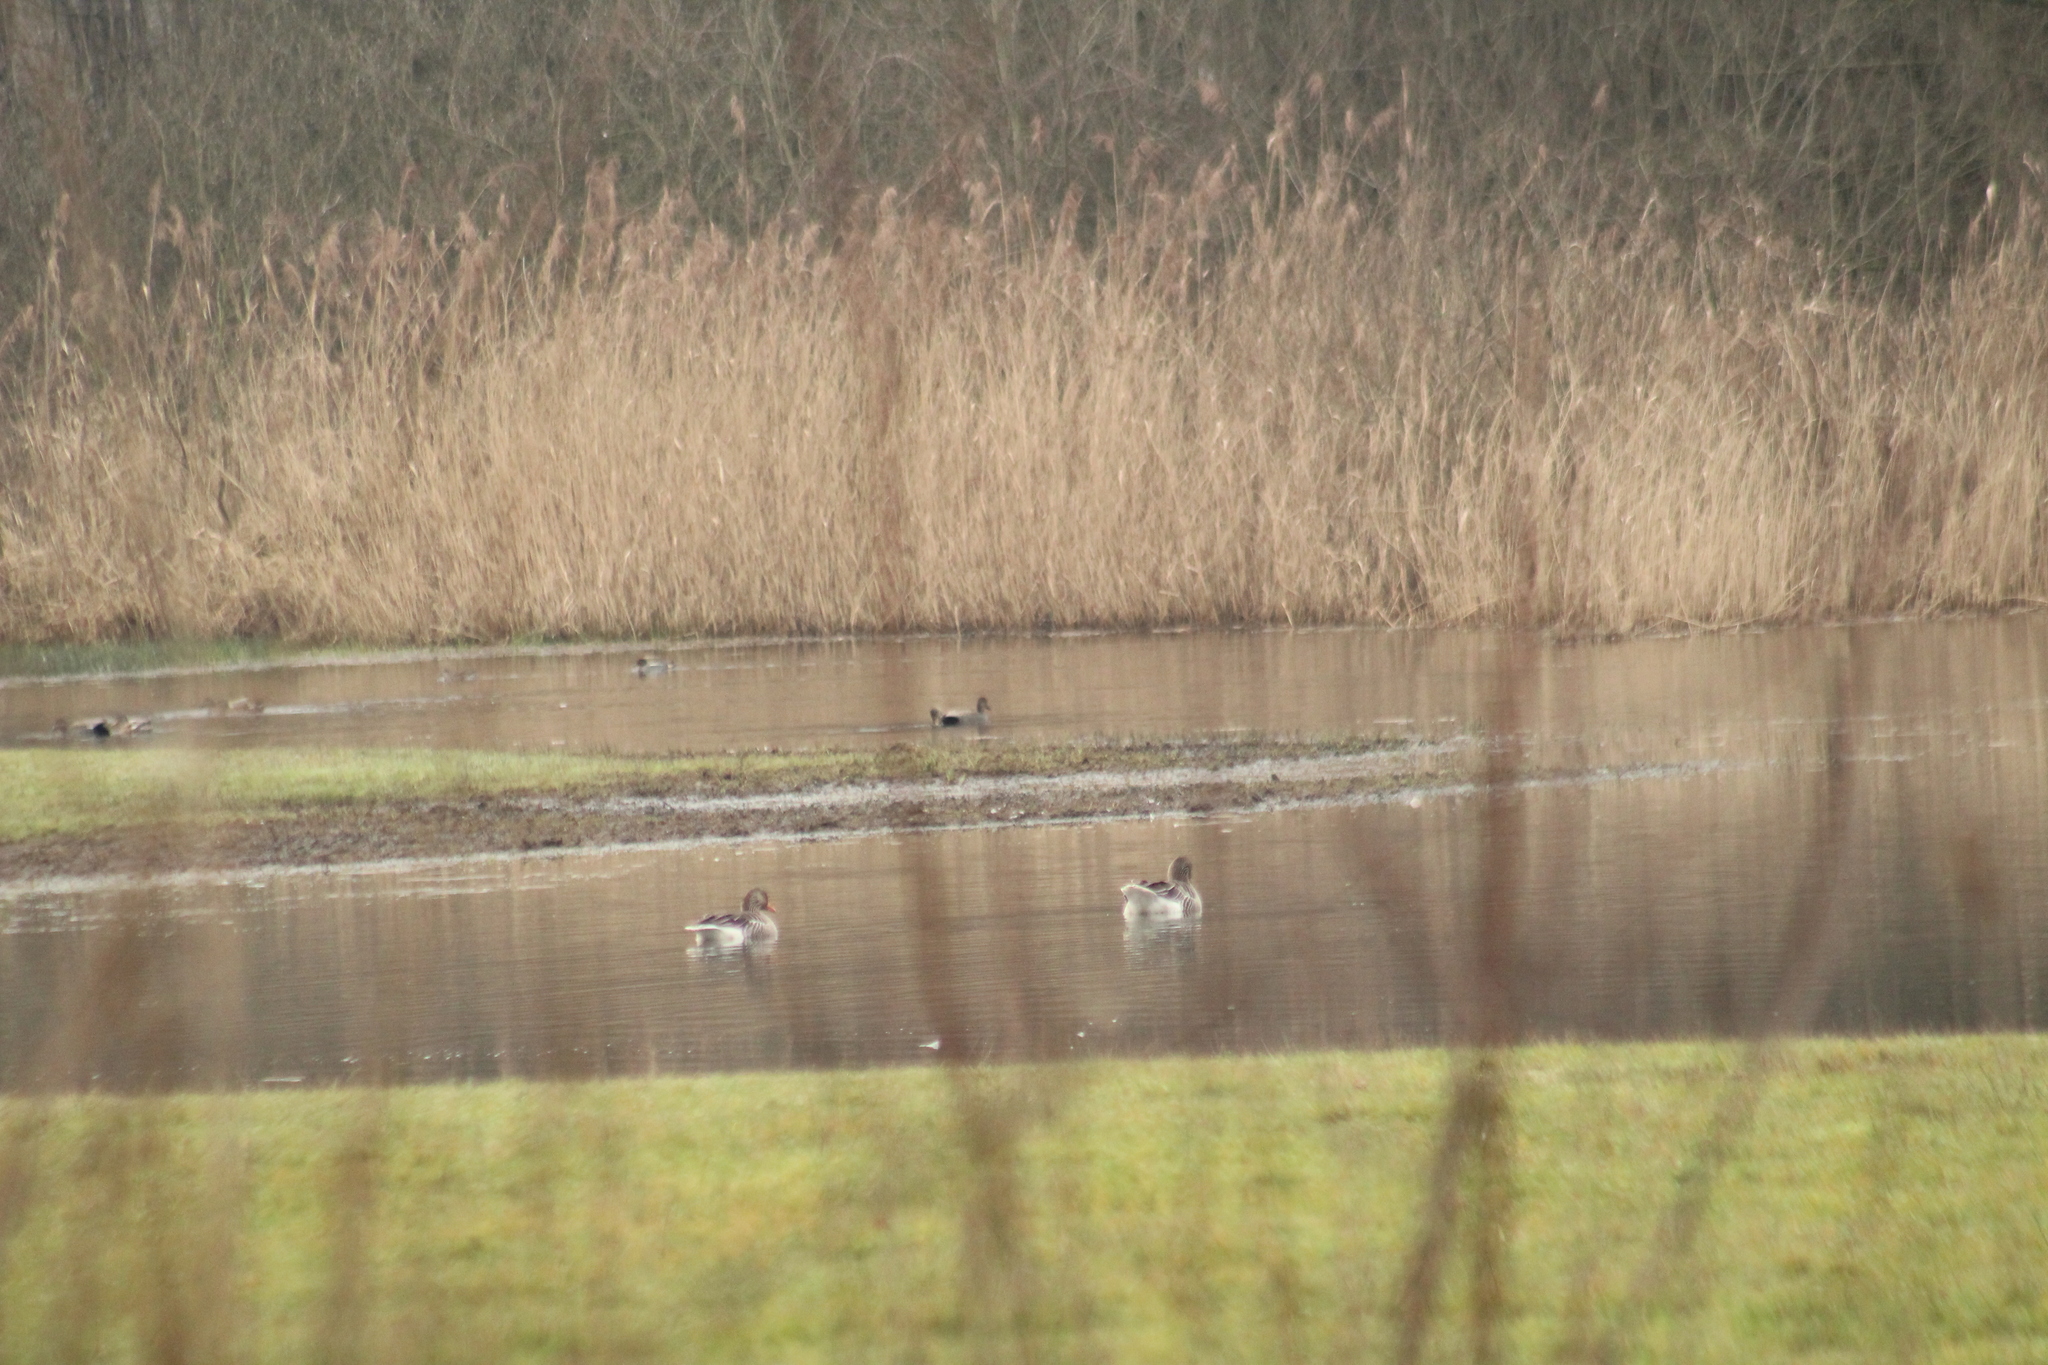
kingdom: Animalia
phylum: Chordata
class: Aves
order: Anseriformes
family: Anatidae
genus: Mareca
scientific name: Mareca strepera
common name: Gadwall
